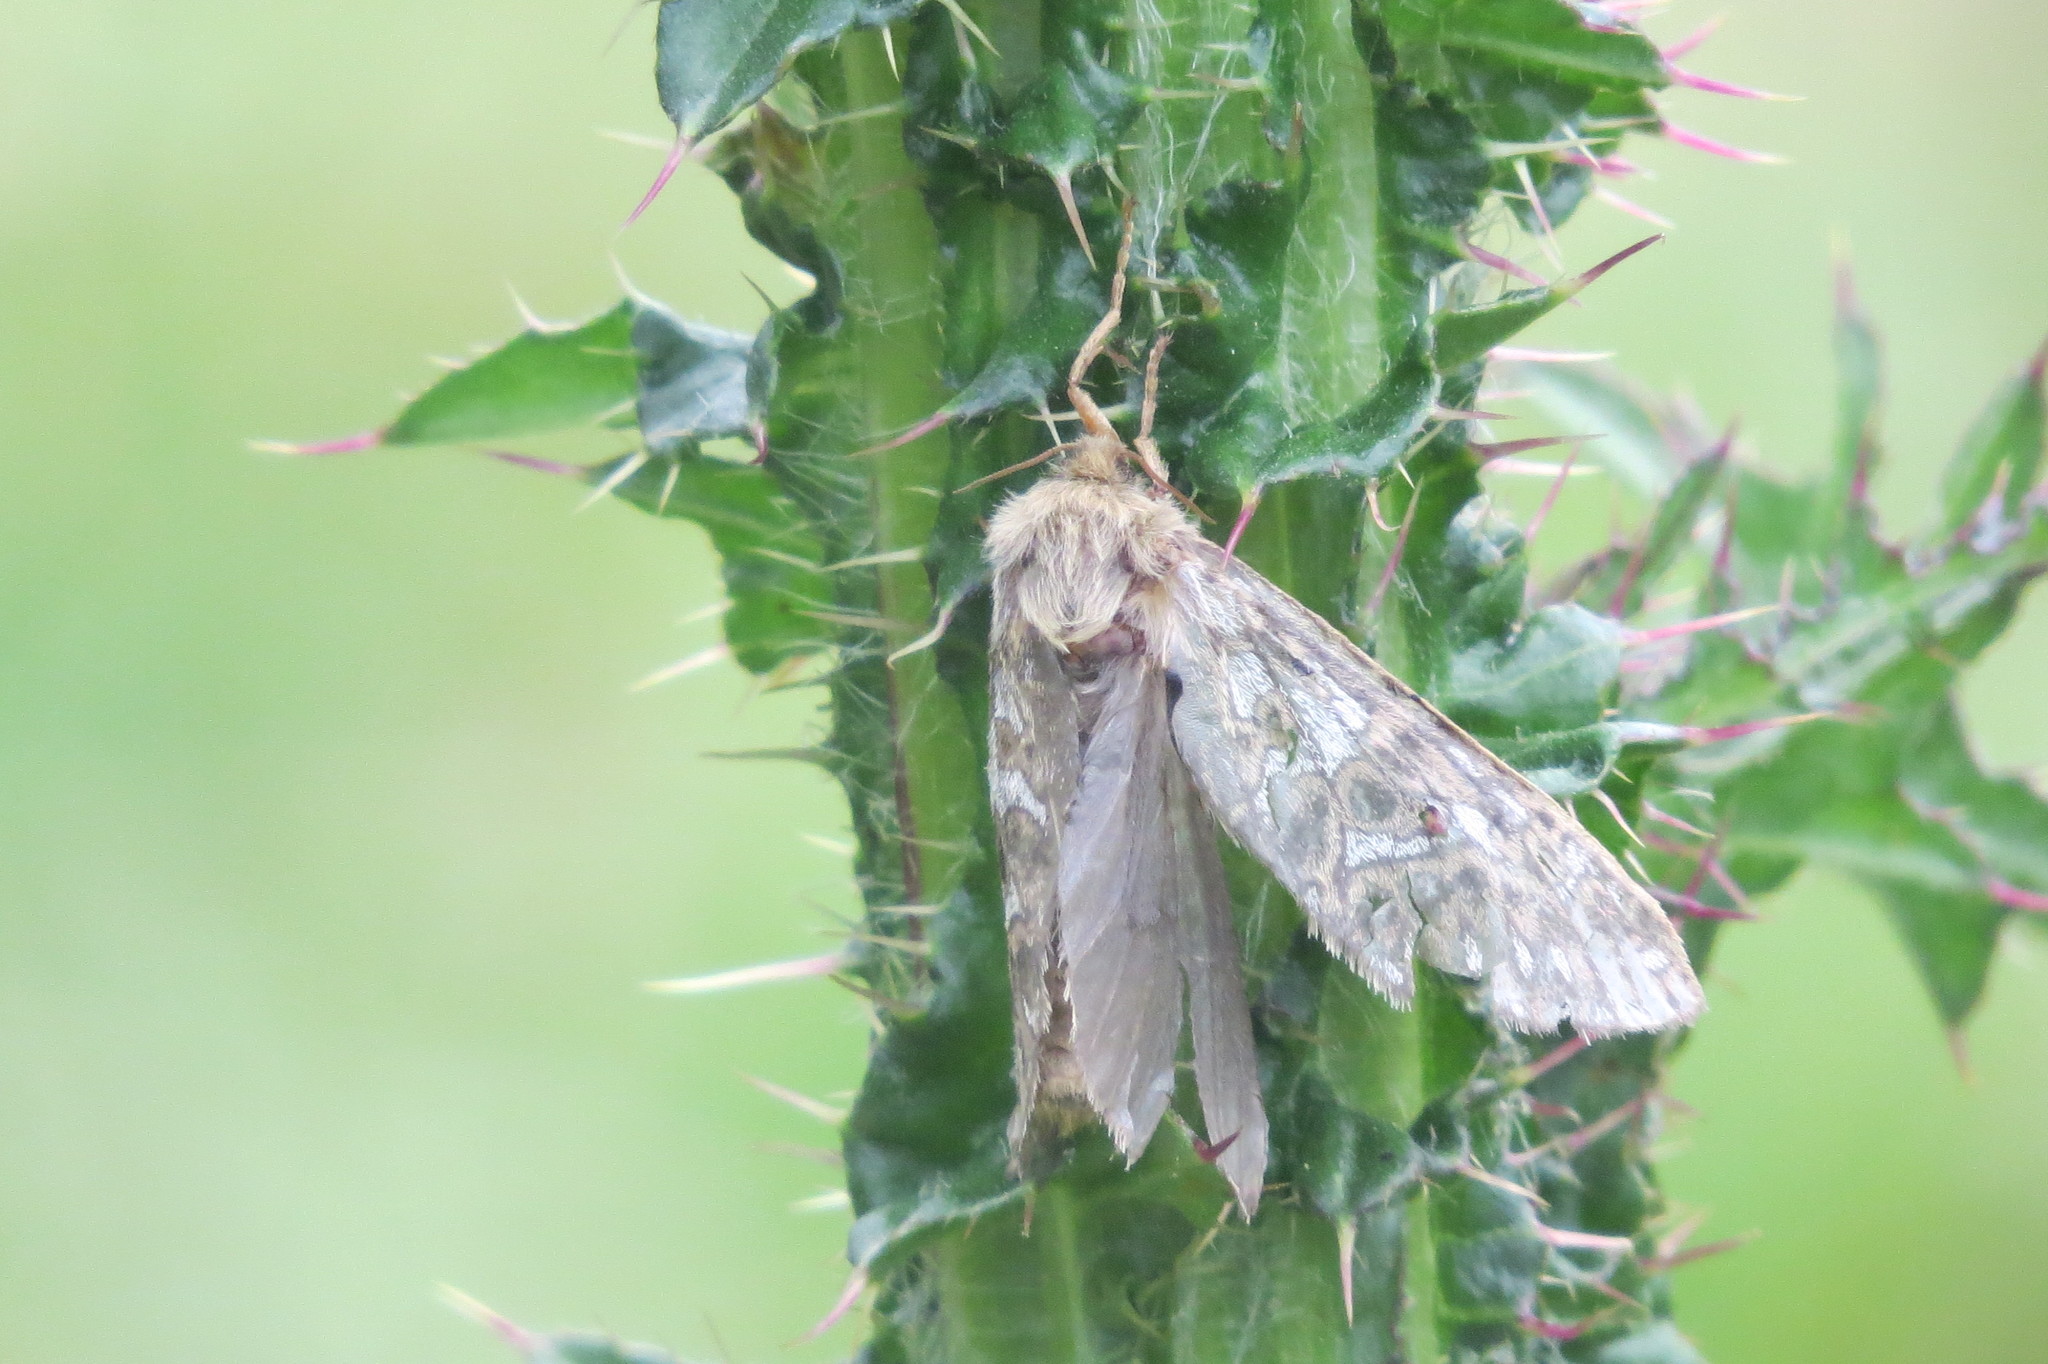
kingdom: Animalia
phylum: Arthropoda
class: Insecta
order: Lepidoptera
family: Hepialidae
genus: Pharmacis
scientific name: Pharmacis carna
